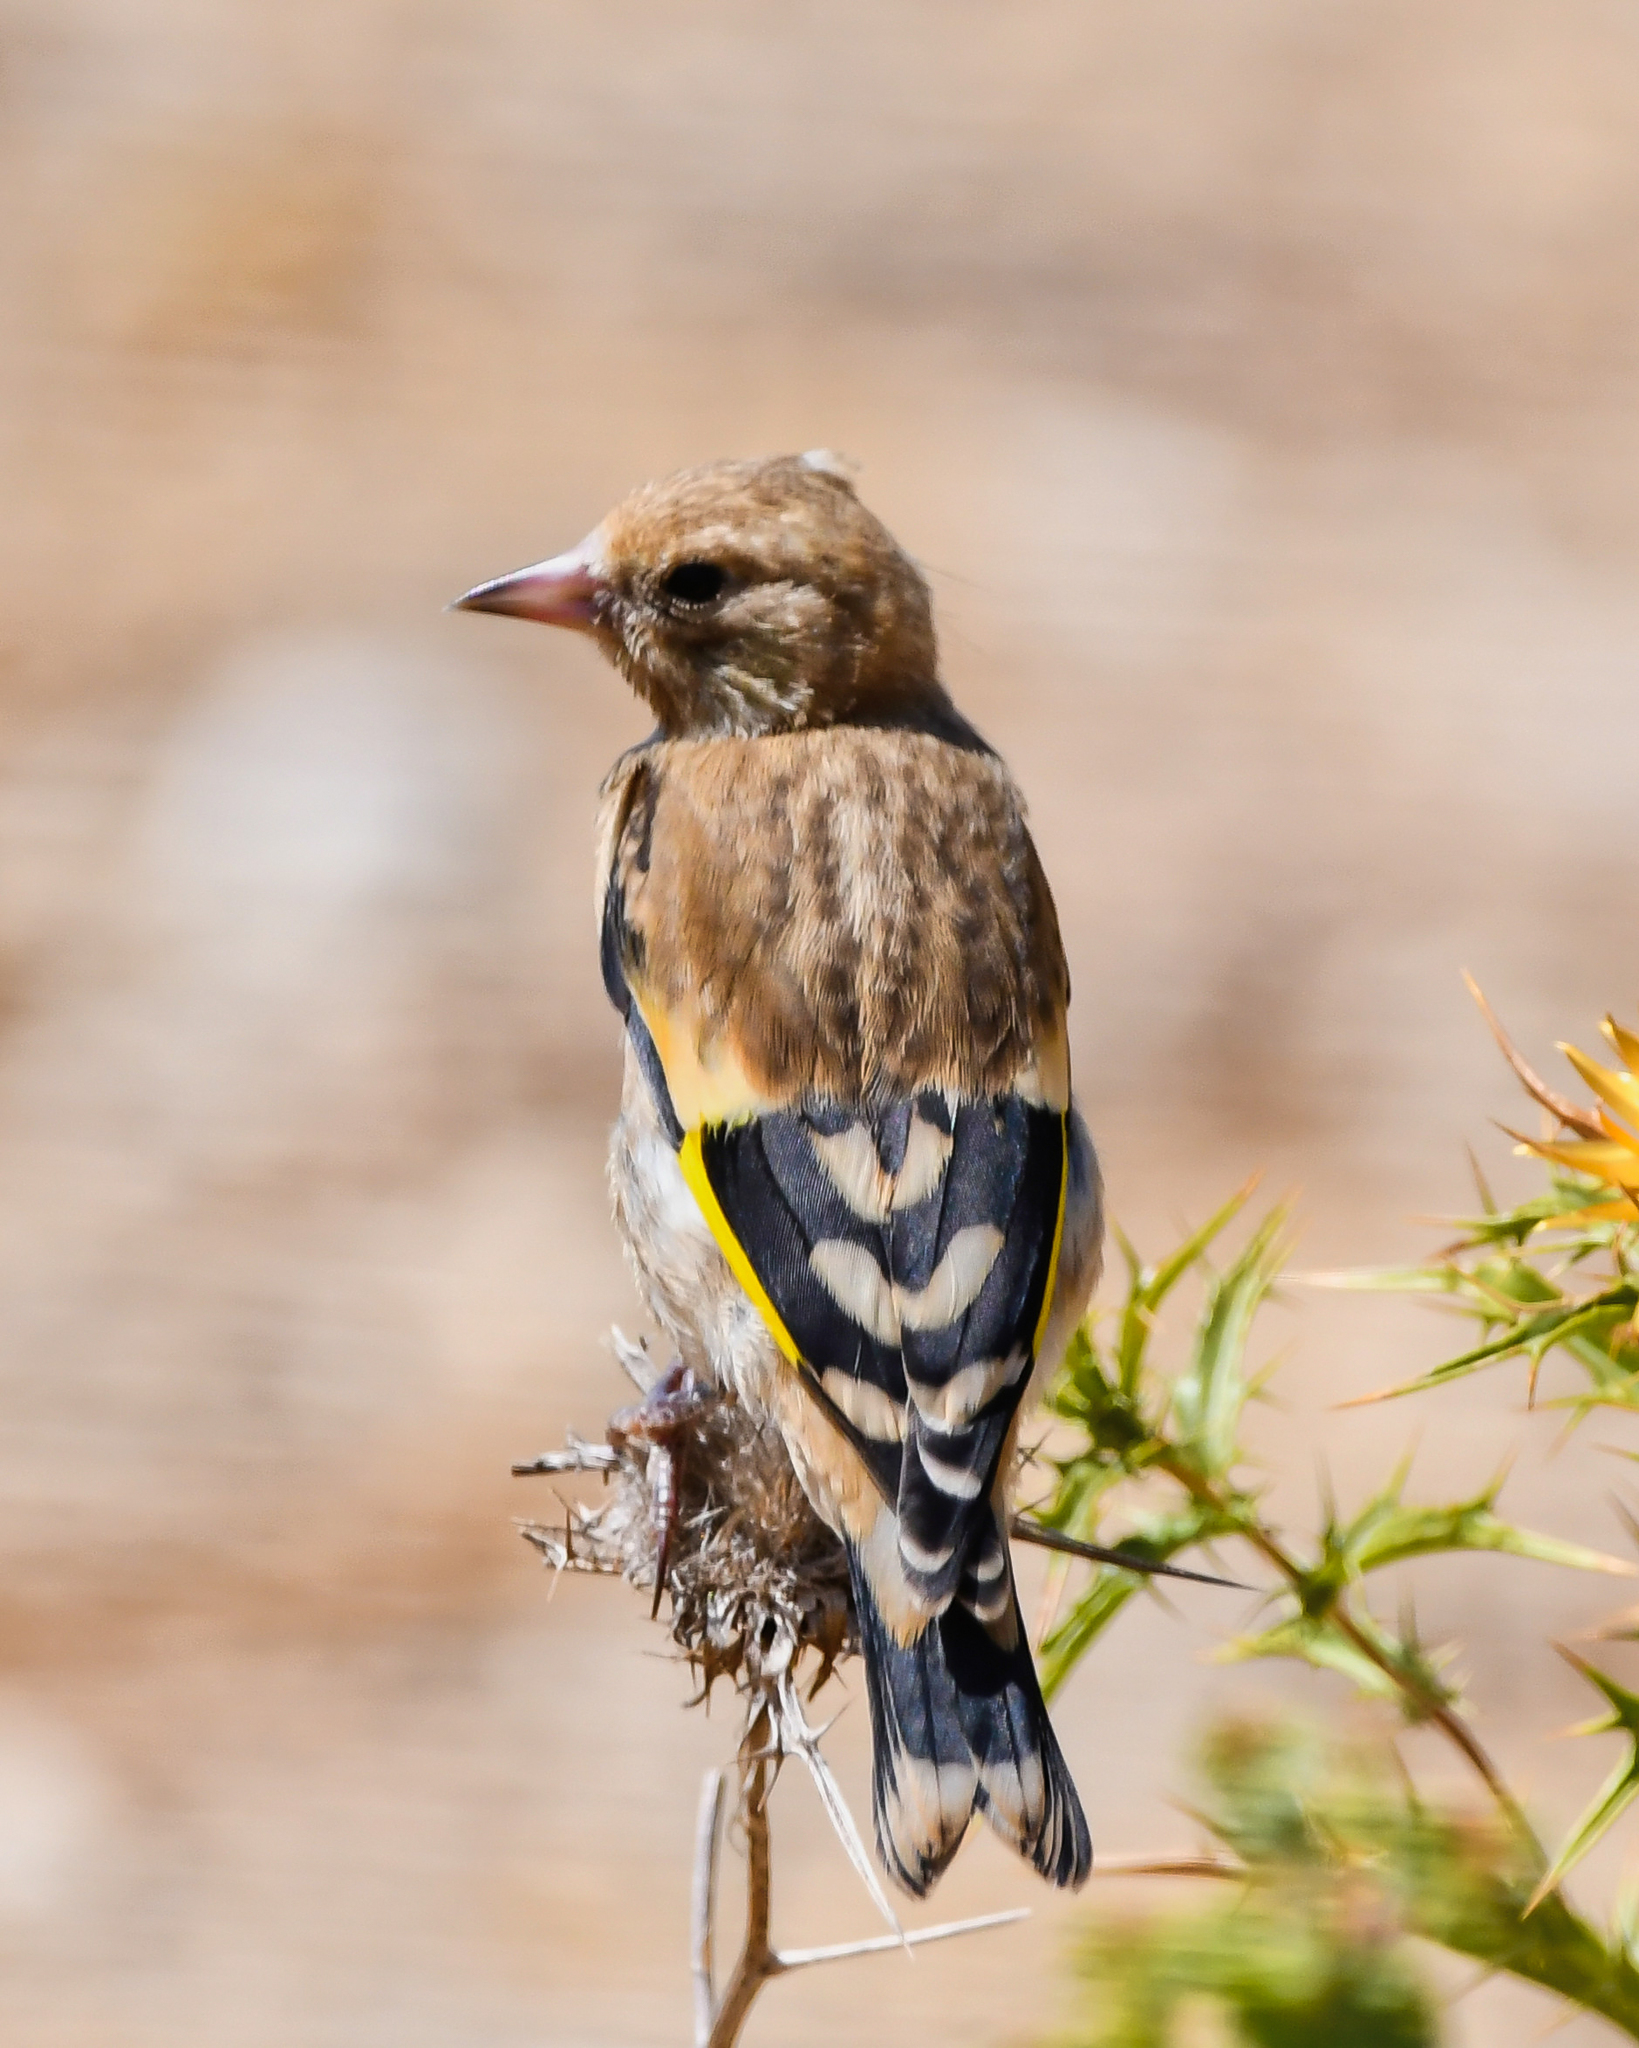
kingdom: Animalia
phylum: Chordata
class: Aves
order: Passeriformes
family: Fringillidae
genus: Carduelis
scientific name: Carduelis carduelis
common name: European goldfinch
